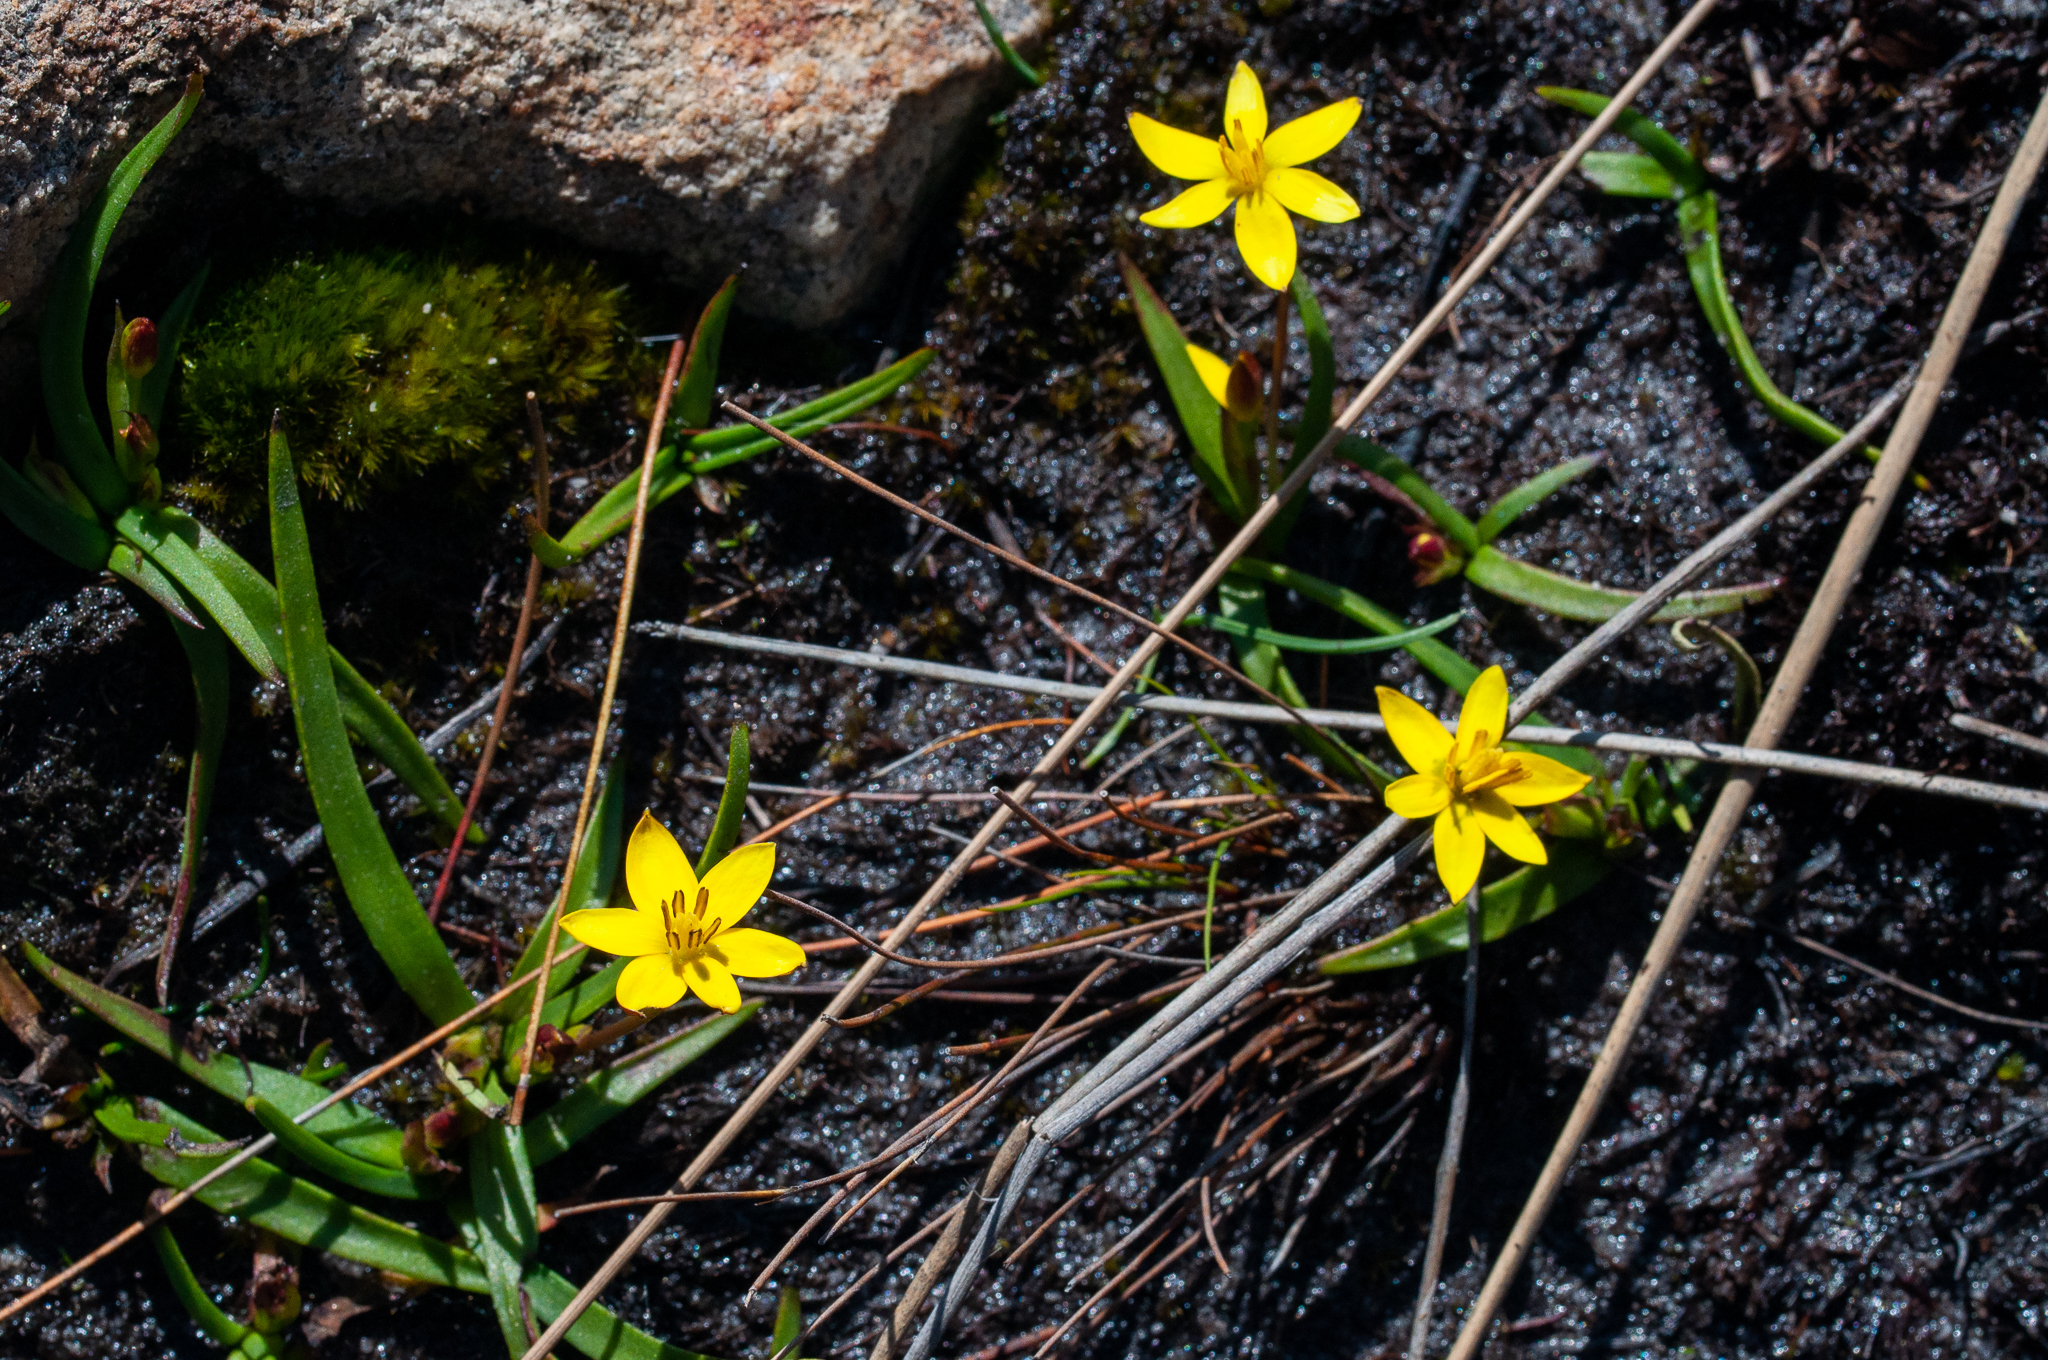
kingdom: Plantae
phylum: Tracheophyta
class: Liliopsida
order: Asparagales
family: Hypoxidaceae
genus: Pauridia
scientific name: Pauridia monticola
